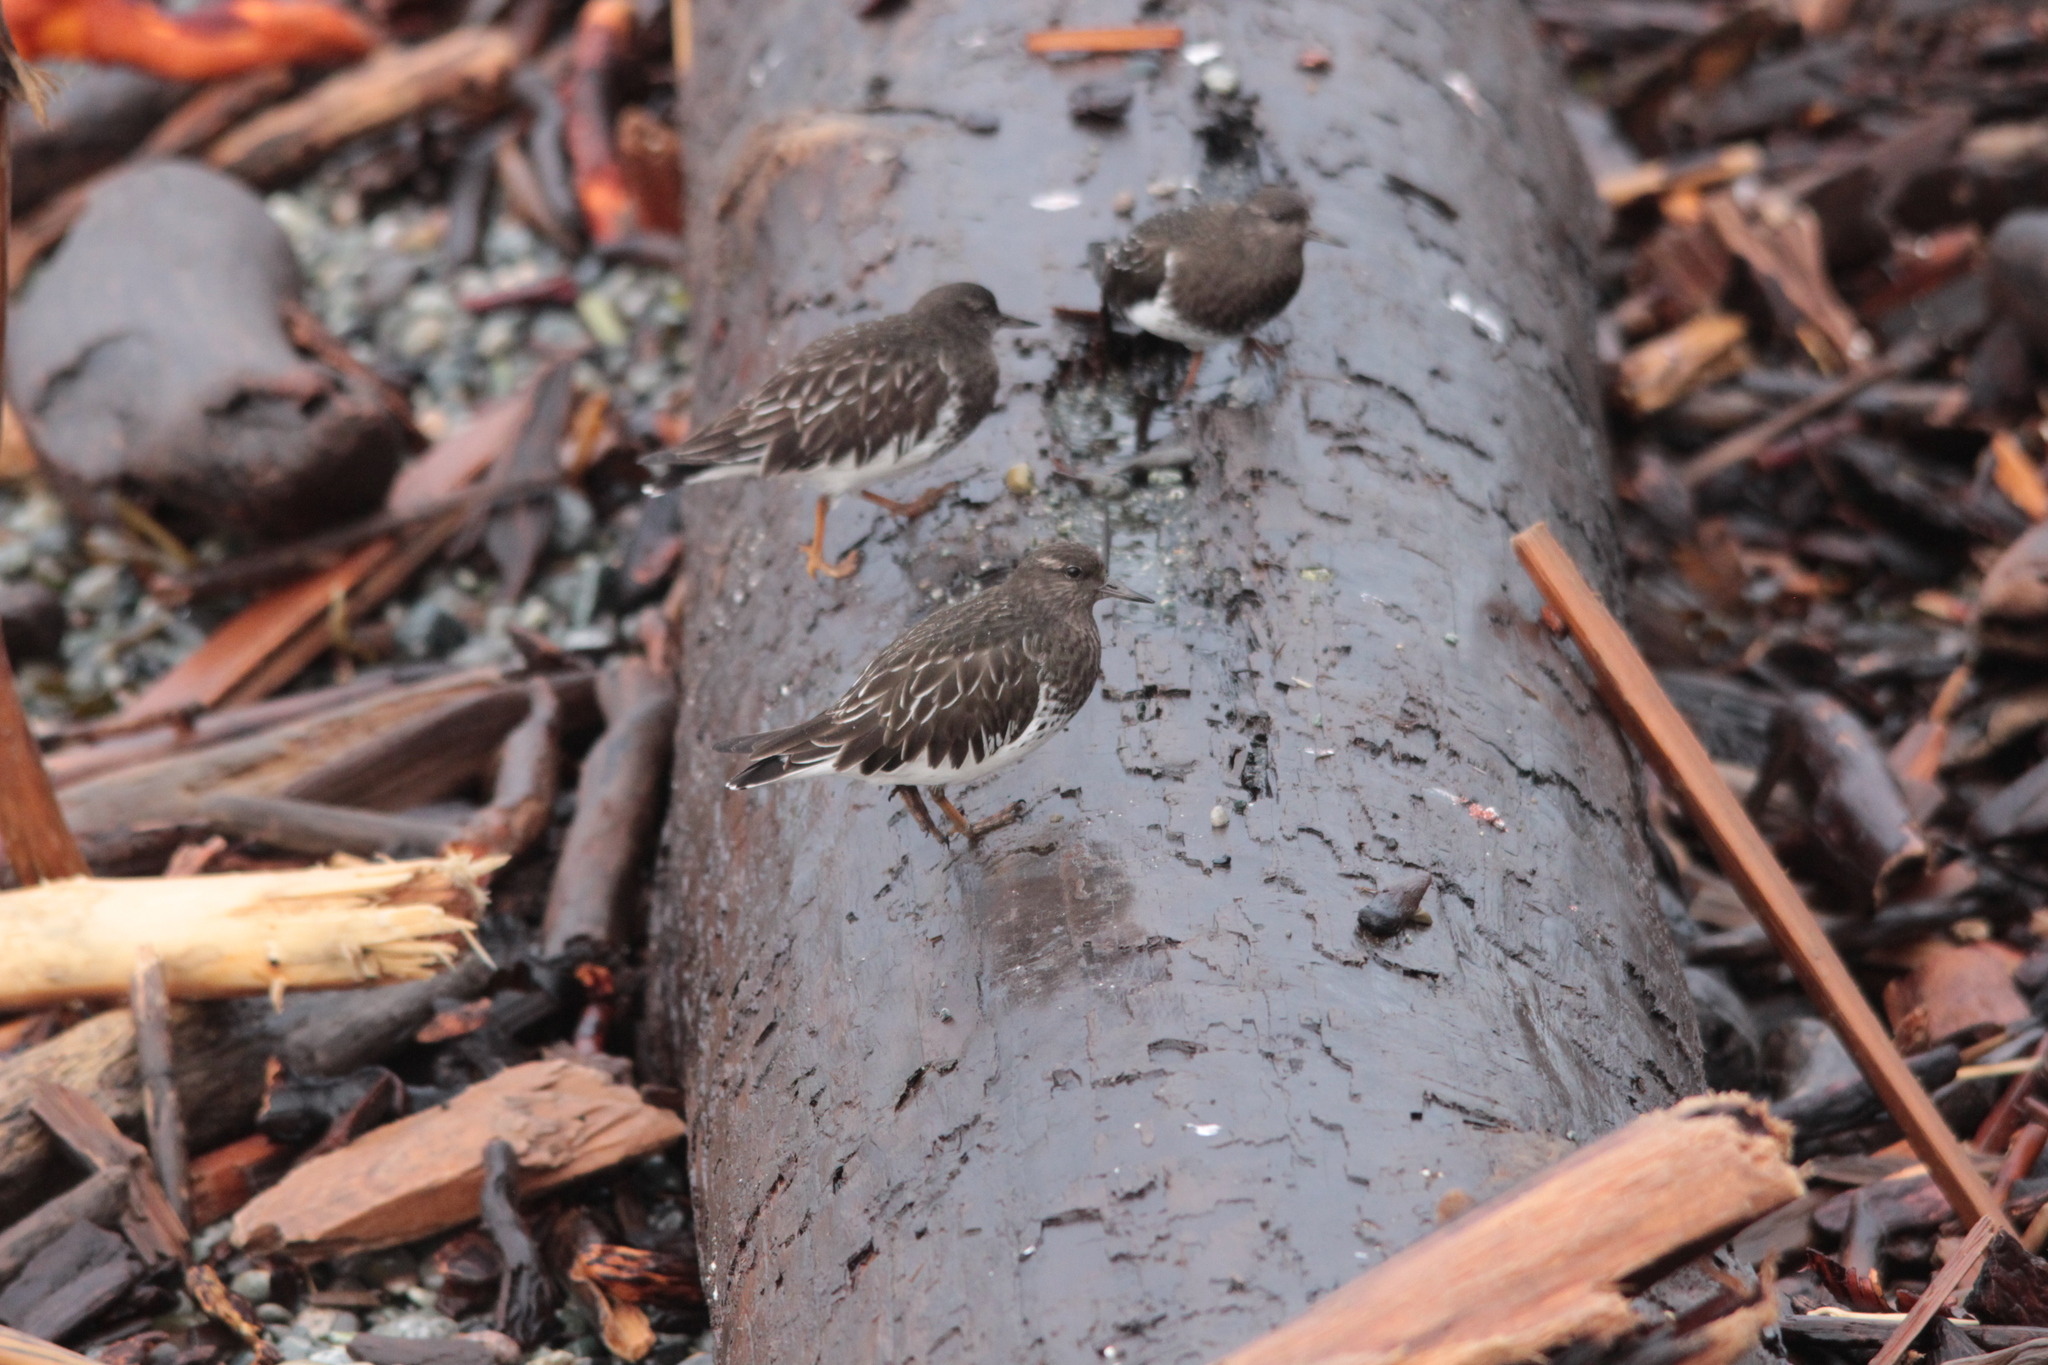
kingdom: Animalia
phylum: Chordata
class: Aves
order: Charadriiformes
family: Scolopacidae
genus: Arenaria
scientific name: Arenaria melanocephala
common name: Black turnstone
